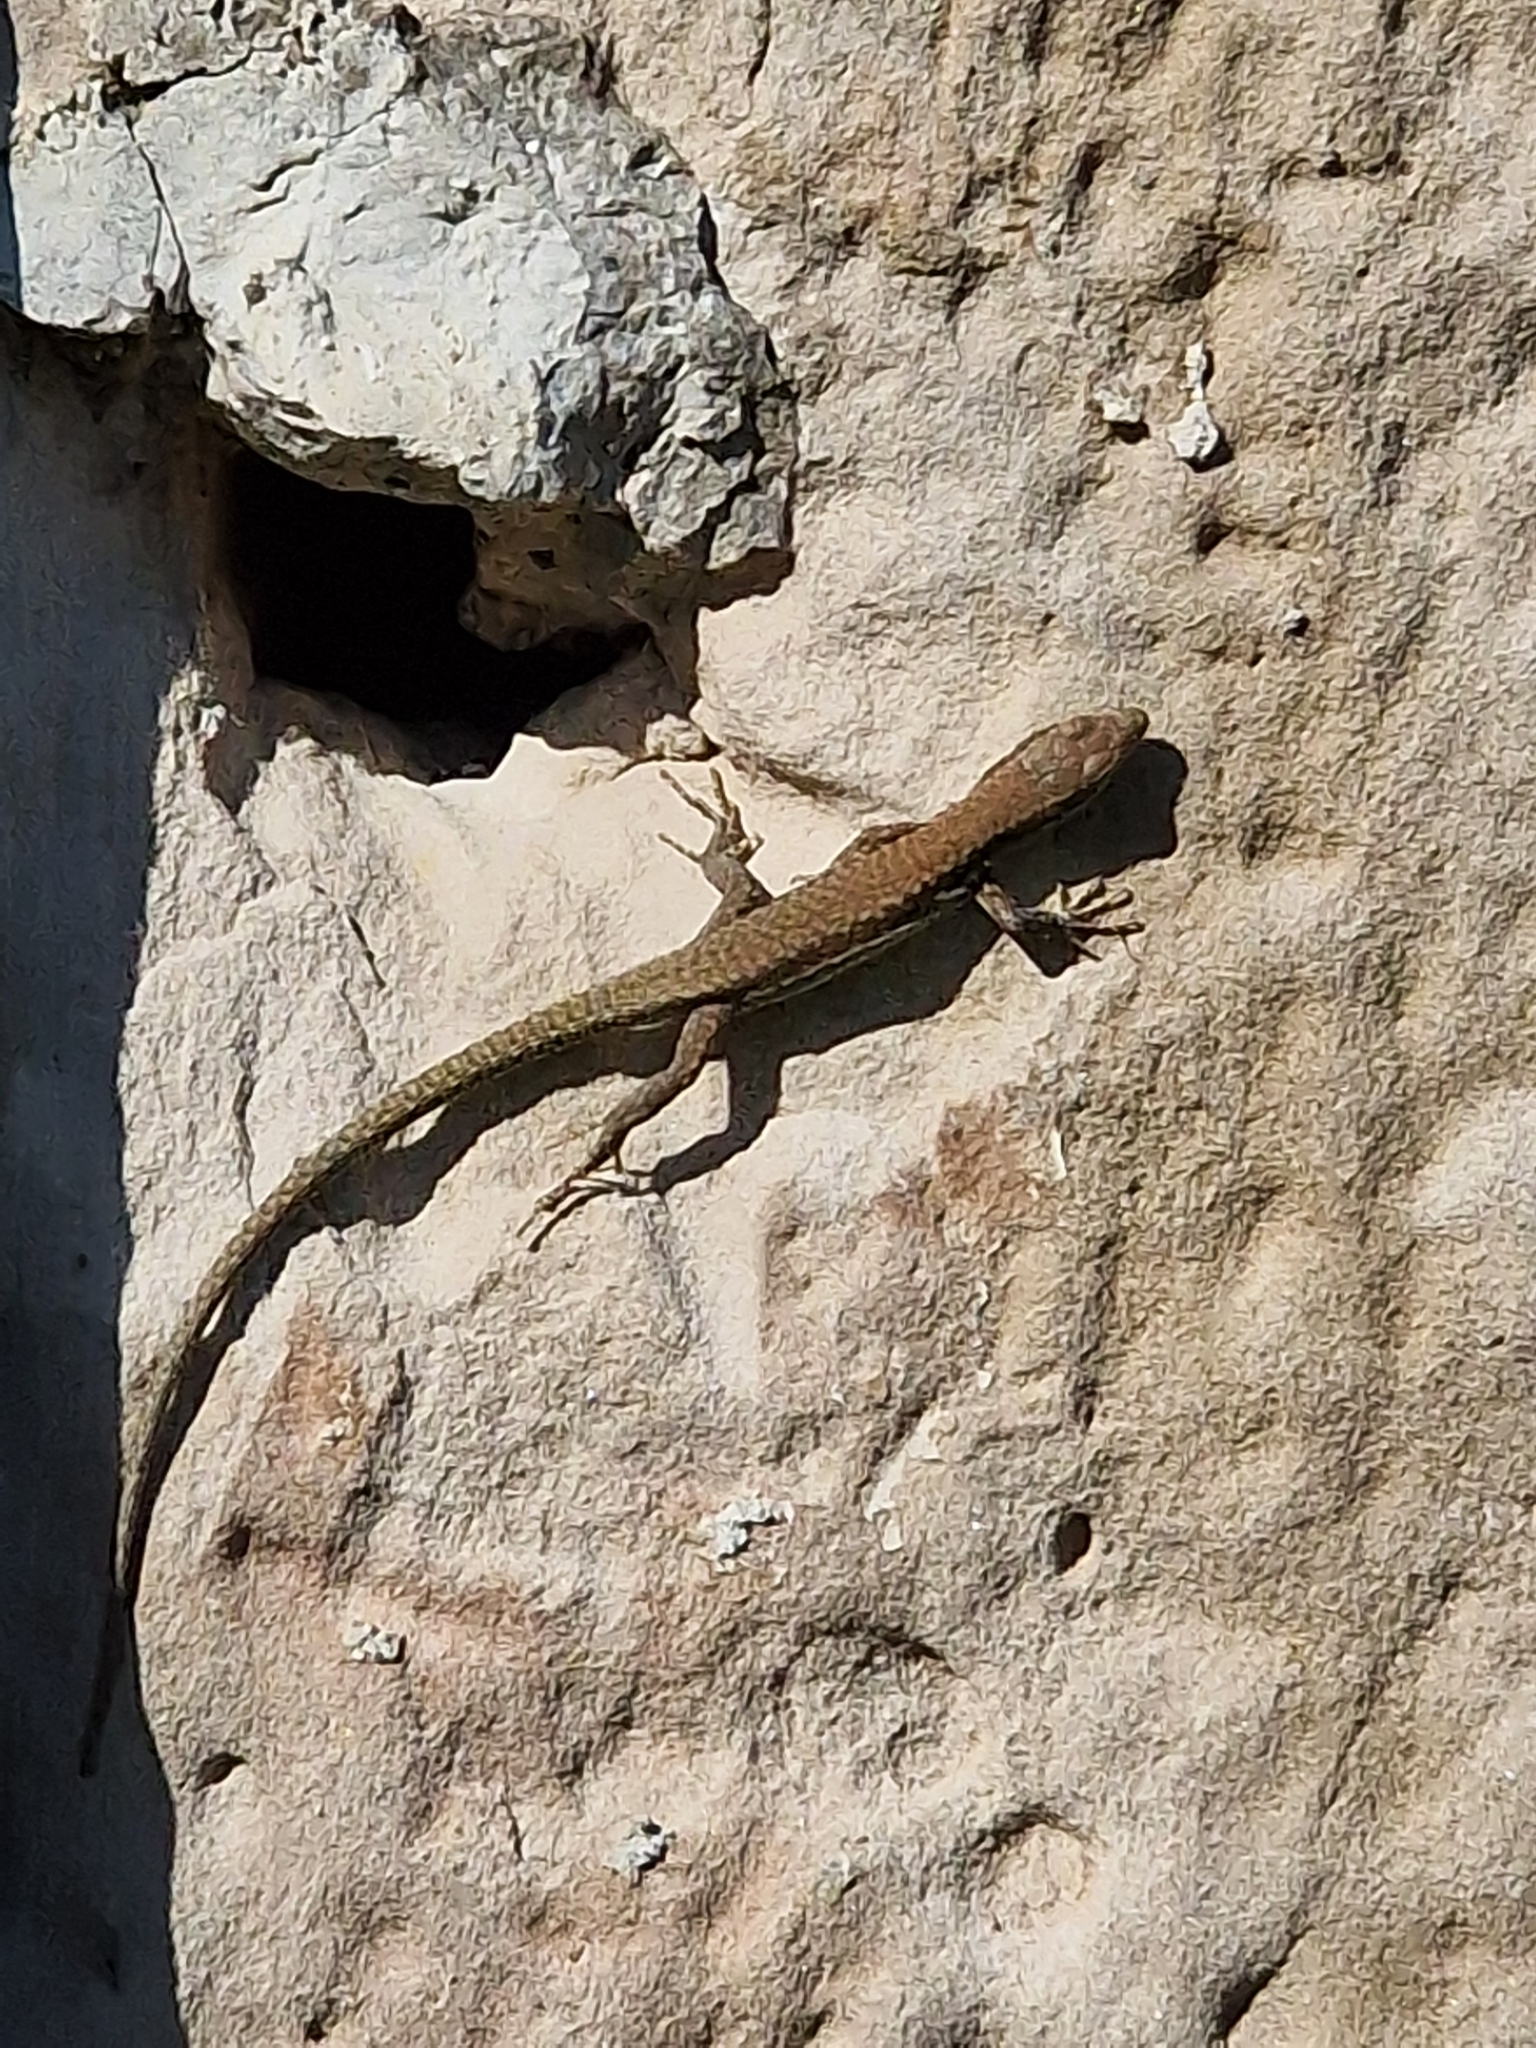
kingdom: Animalia
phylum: Chordata
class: Squamata
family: Lacertidae
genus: Podarcis
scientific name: Podarcis muralis
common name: Common wall lizard
